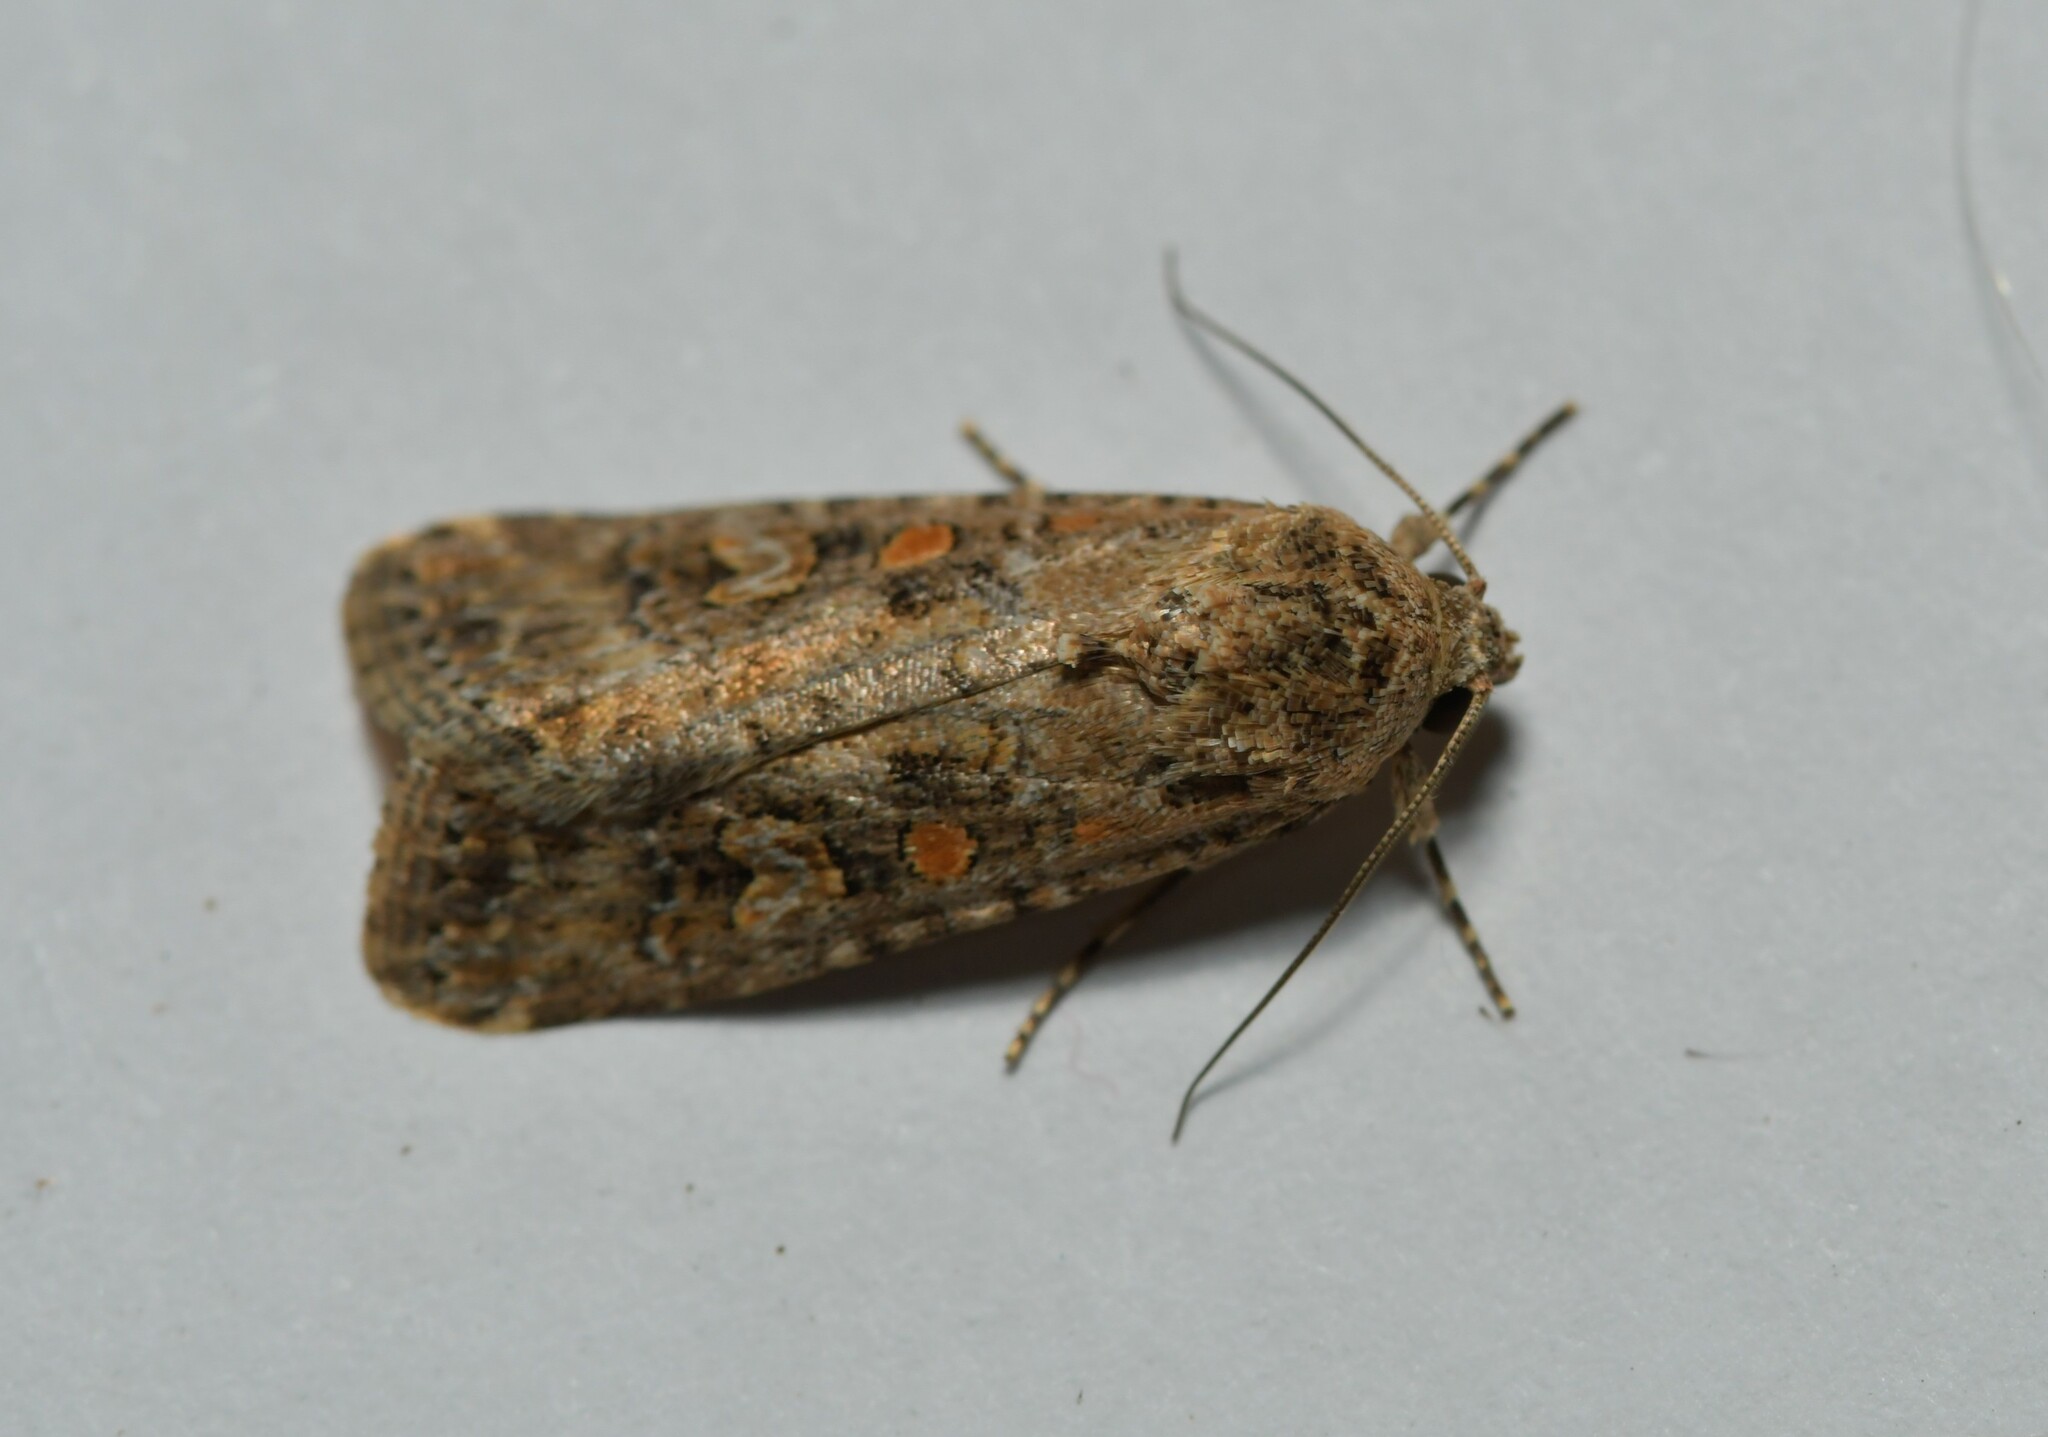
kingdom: Animalia
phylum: Arthropoda
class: Insecta
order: Lepidoptera
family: Noctuidae
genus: Spodoptera
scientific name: Spodoptera exigua
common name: Beet armyworm
